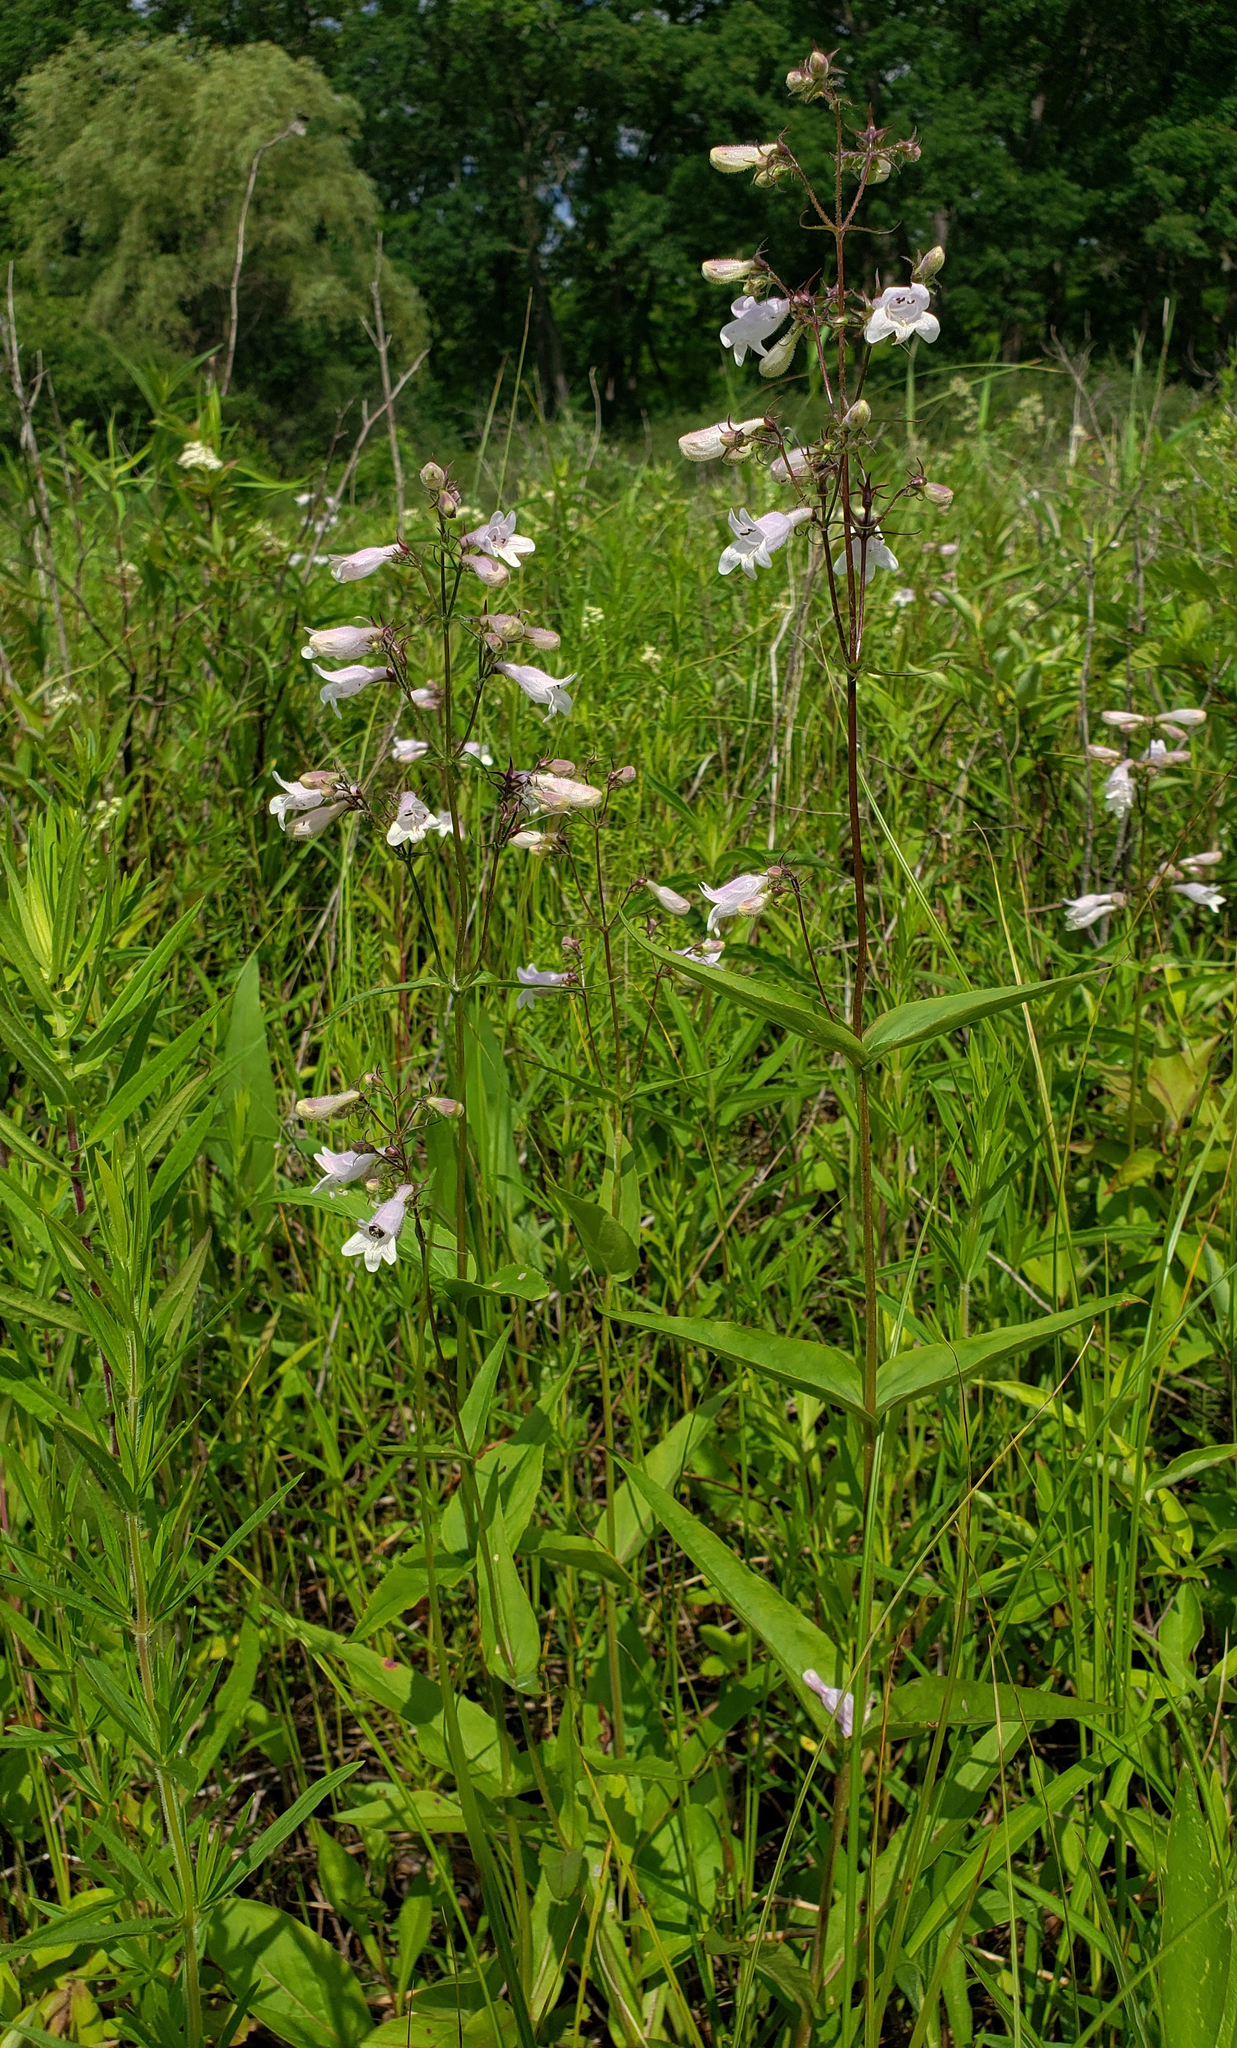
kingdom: Plantae
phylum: Tracheophyta
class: Magnoliopsida
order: Lamiales
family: Plantaginaceae
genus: Penstemon
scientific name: Penstemon digitalis
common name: Foxglove beardtongue
